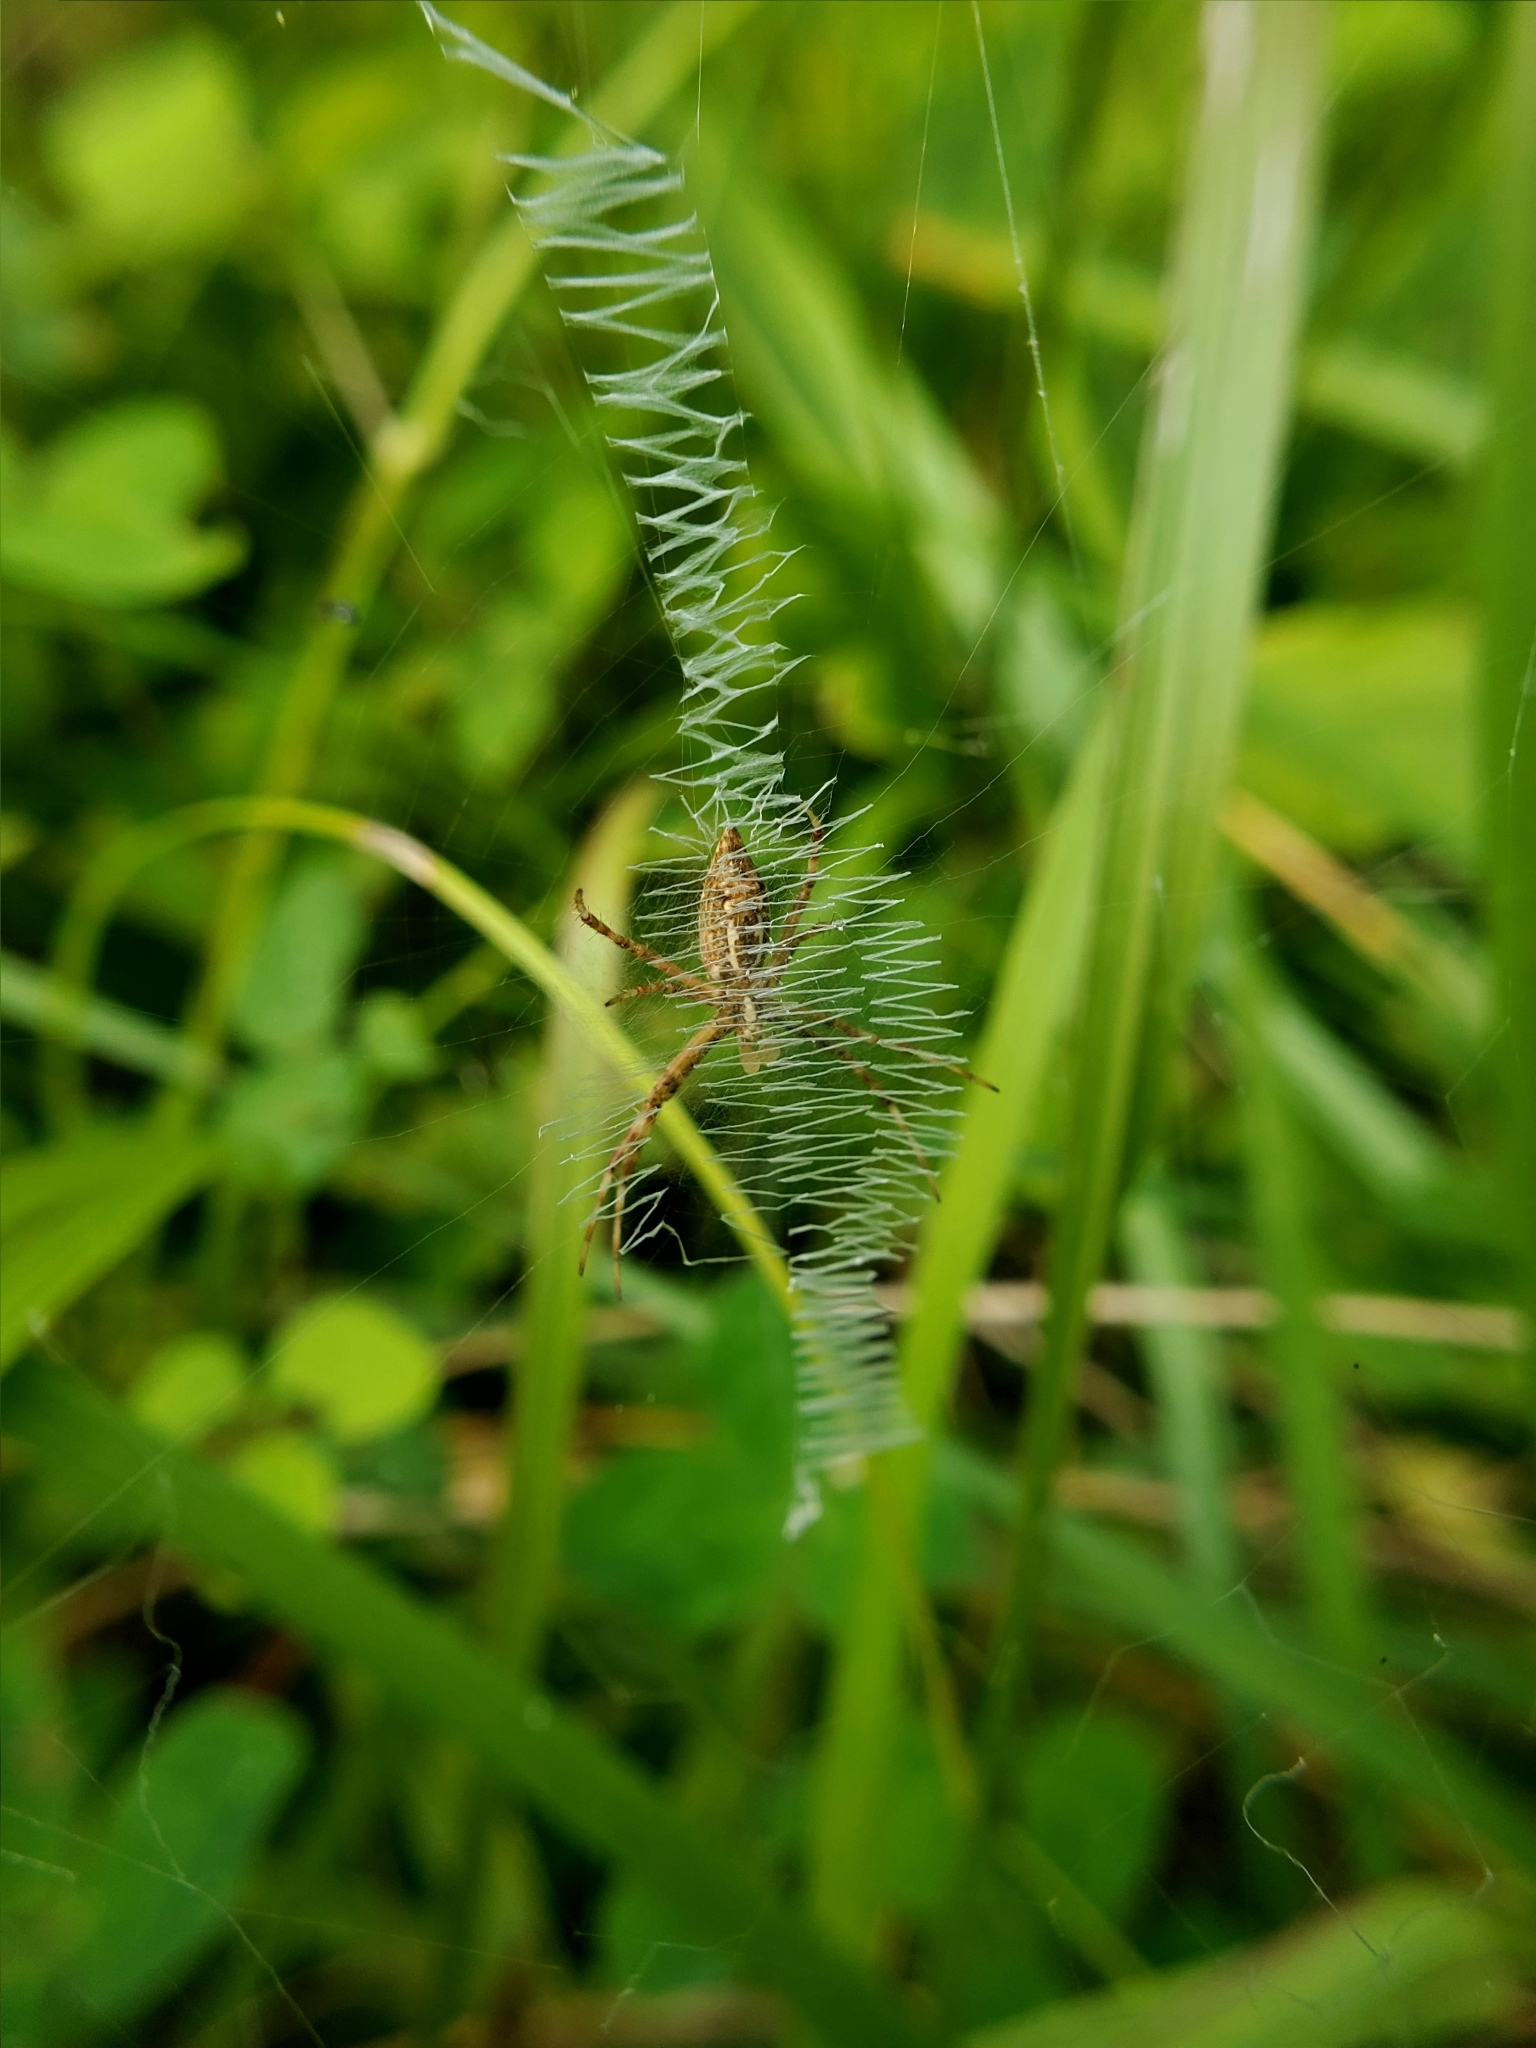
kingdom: Animalia
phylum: Arthropoda
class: Arachnida
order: Araneae
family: Araneidae
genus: Argiope
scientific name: Argiope aurantia
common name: Orb weavers
